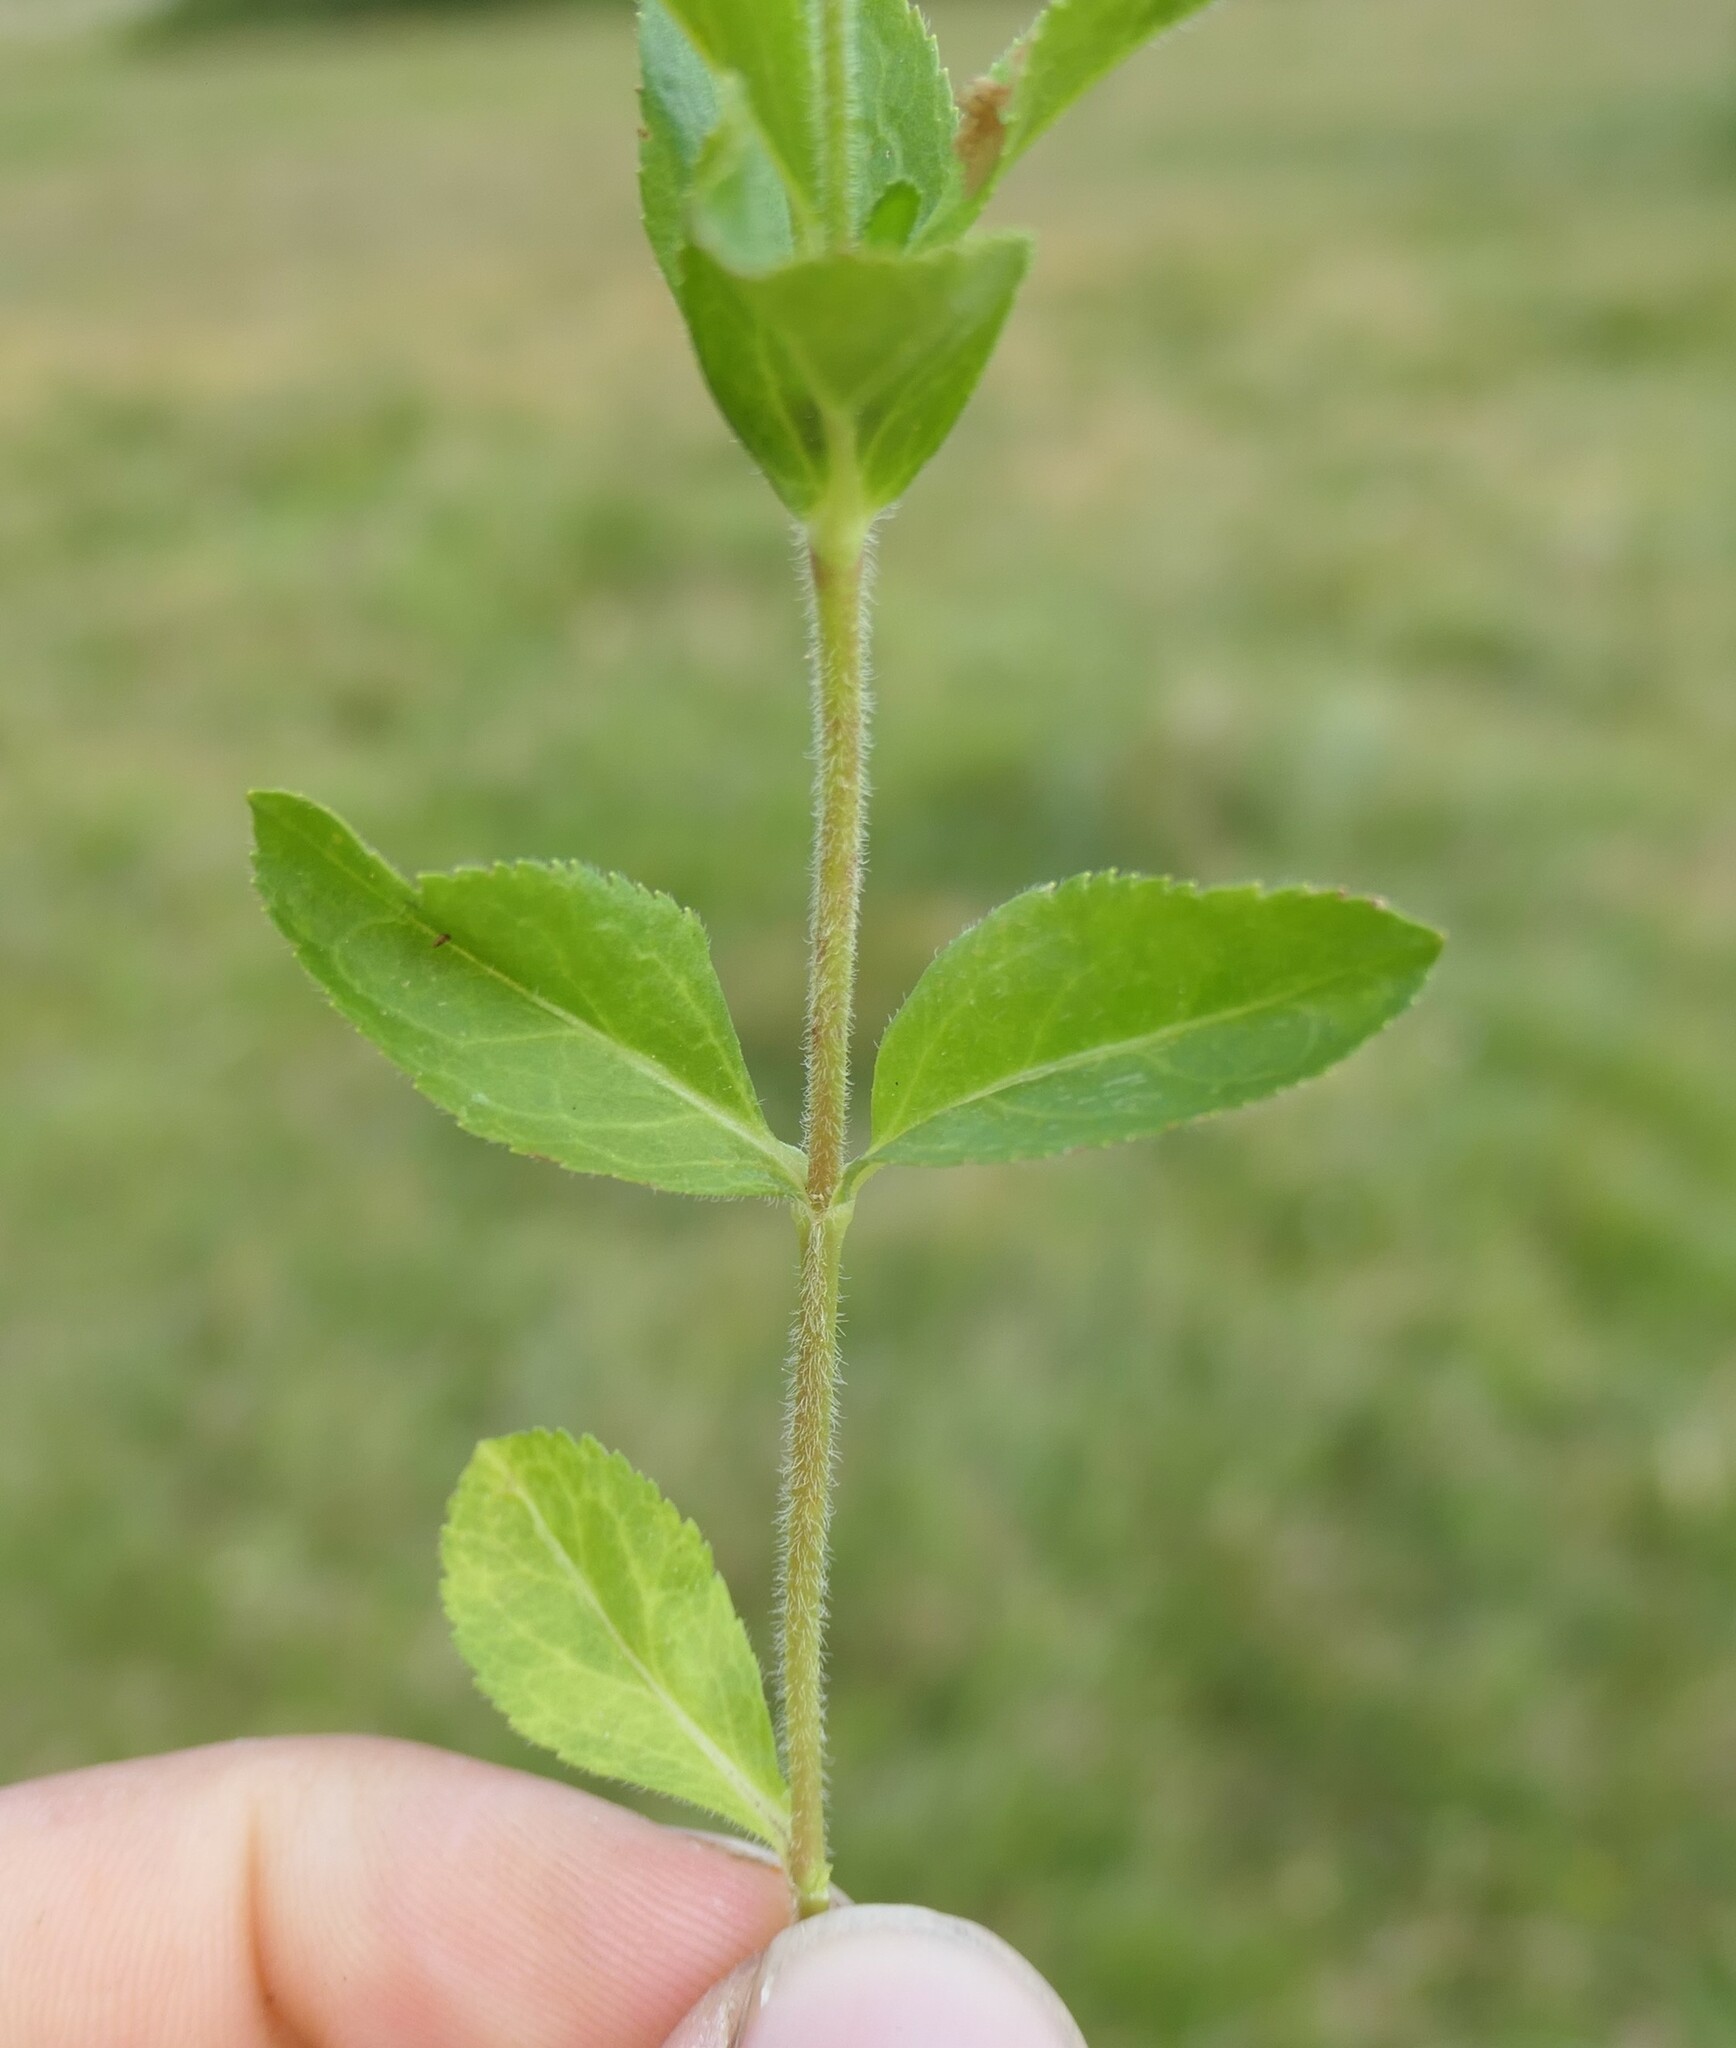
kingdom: Plantae
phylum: Tracheophyta
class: Magnoliopsida
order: Lamiales
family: Plantaginaceae
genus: Veronica
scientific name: Veronica officinalis
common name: Common speedwell
